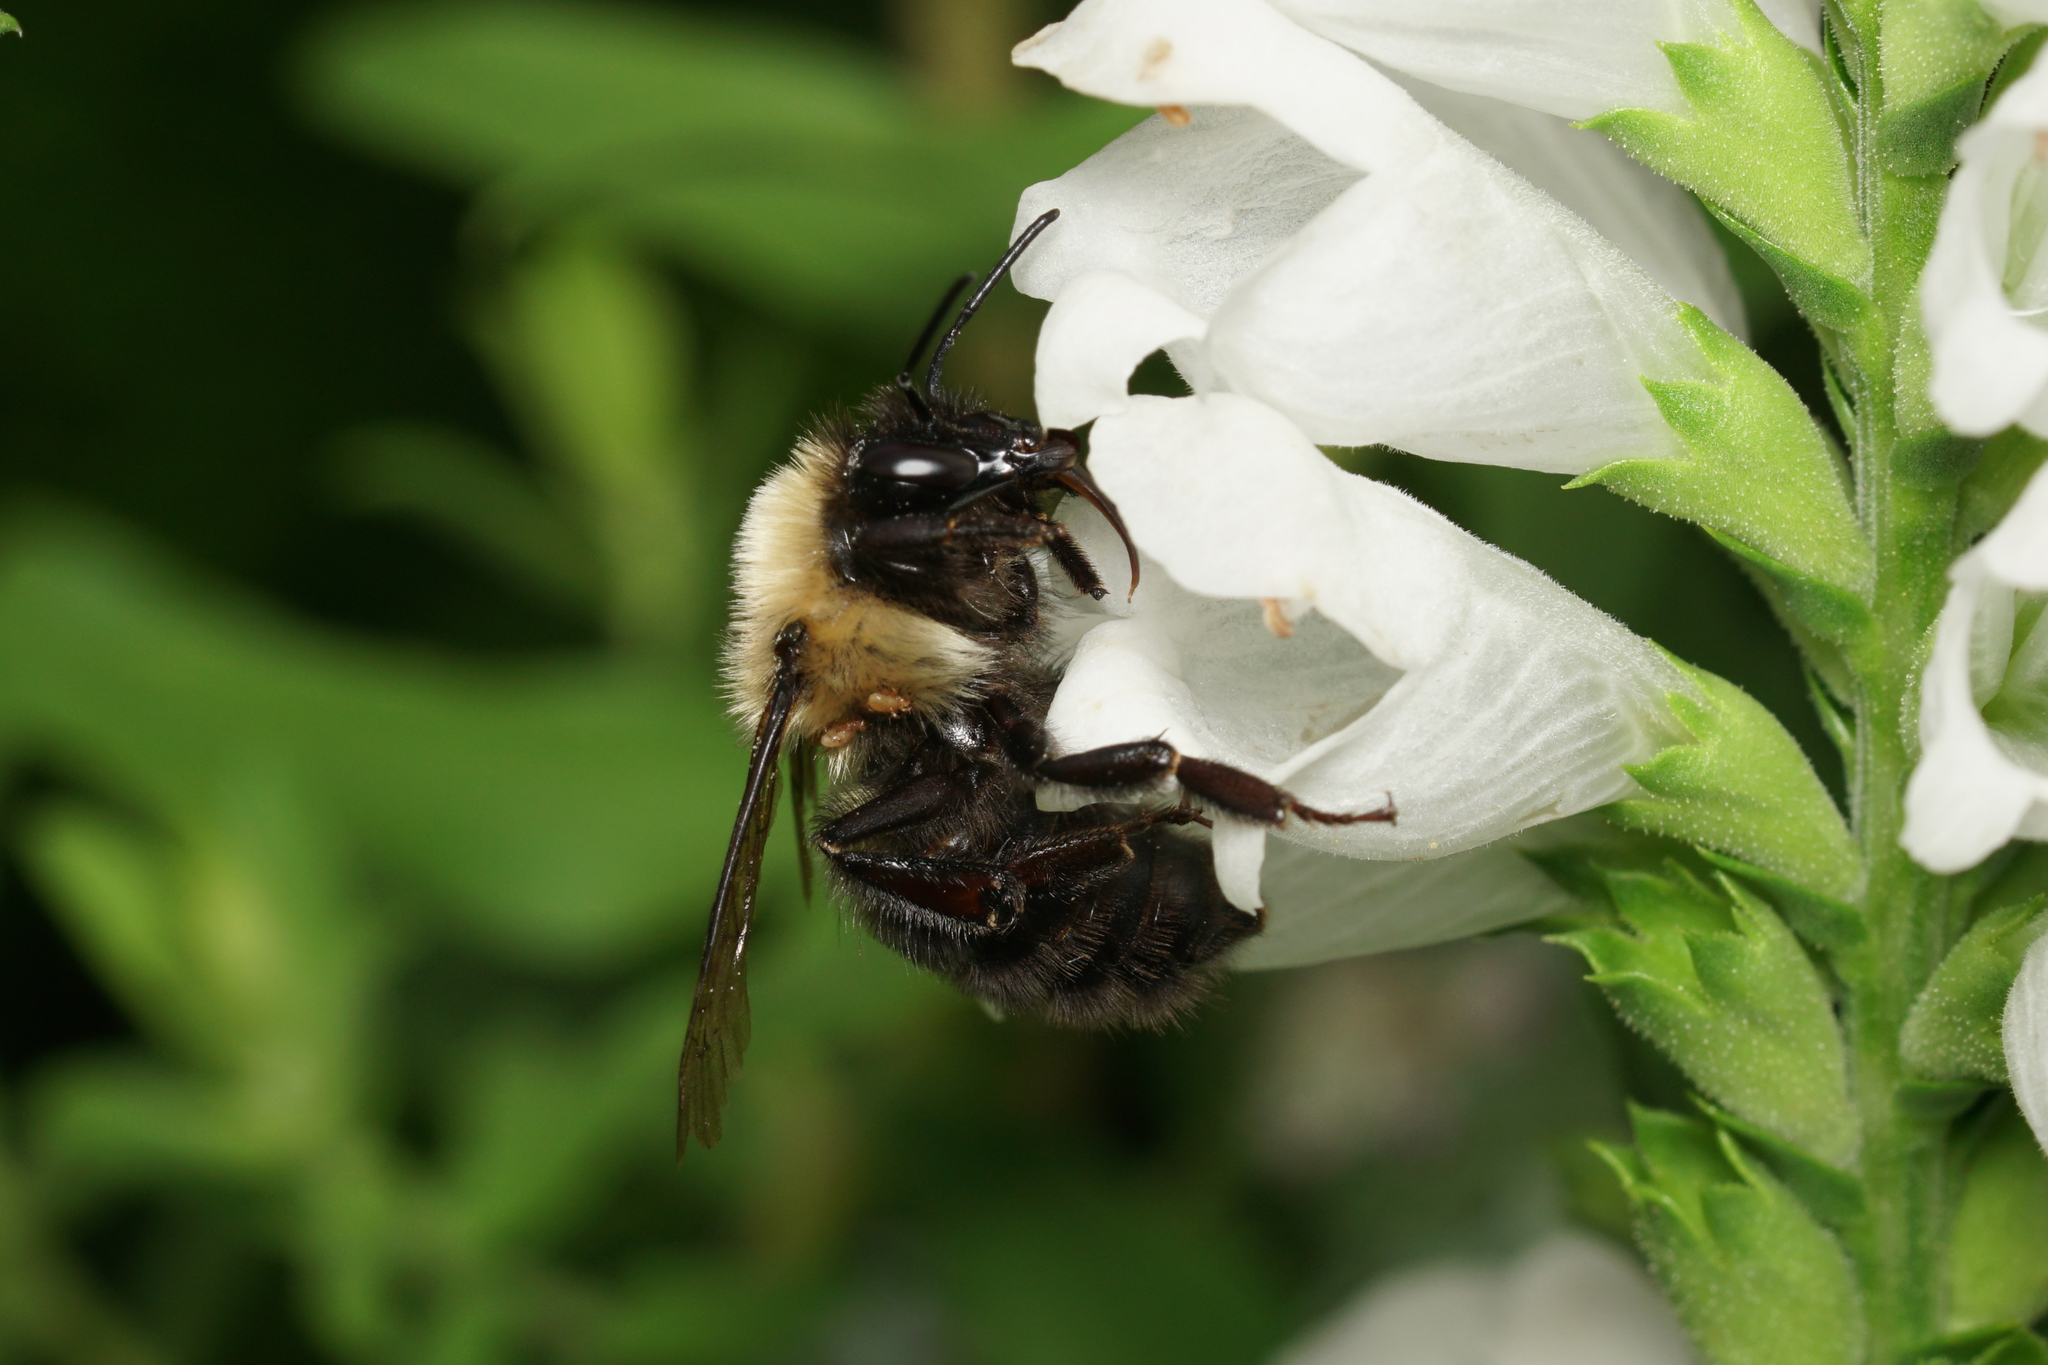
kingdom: Animalia
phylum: Arthropoda
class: Insecta
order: Hymenoptera
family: Apidae
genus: Bombus
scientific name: Bombus bimaculatus
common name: Two-spotted bumble bee
